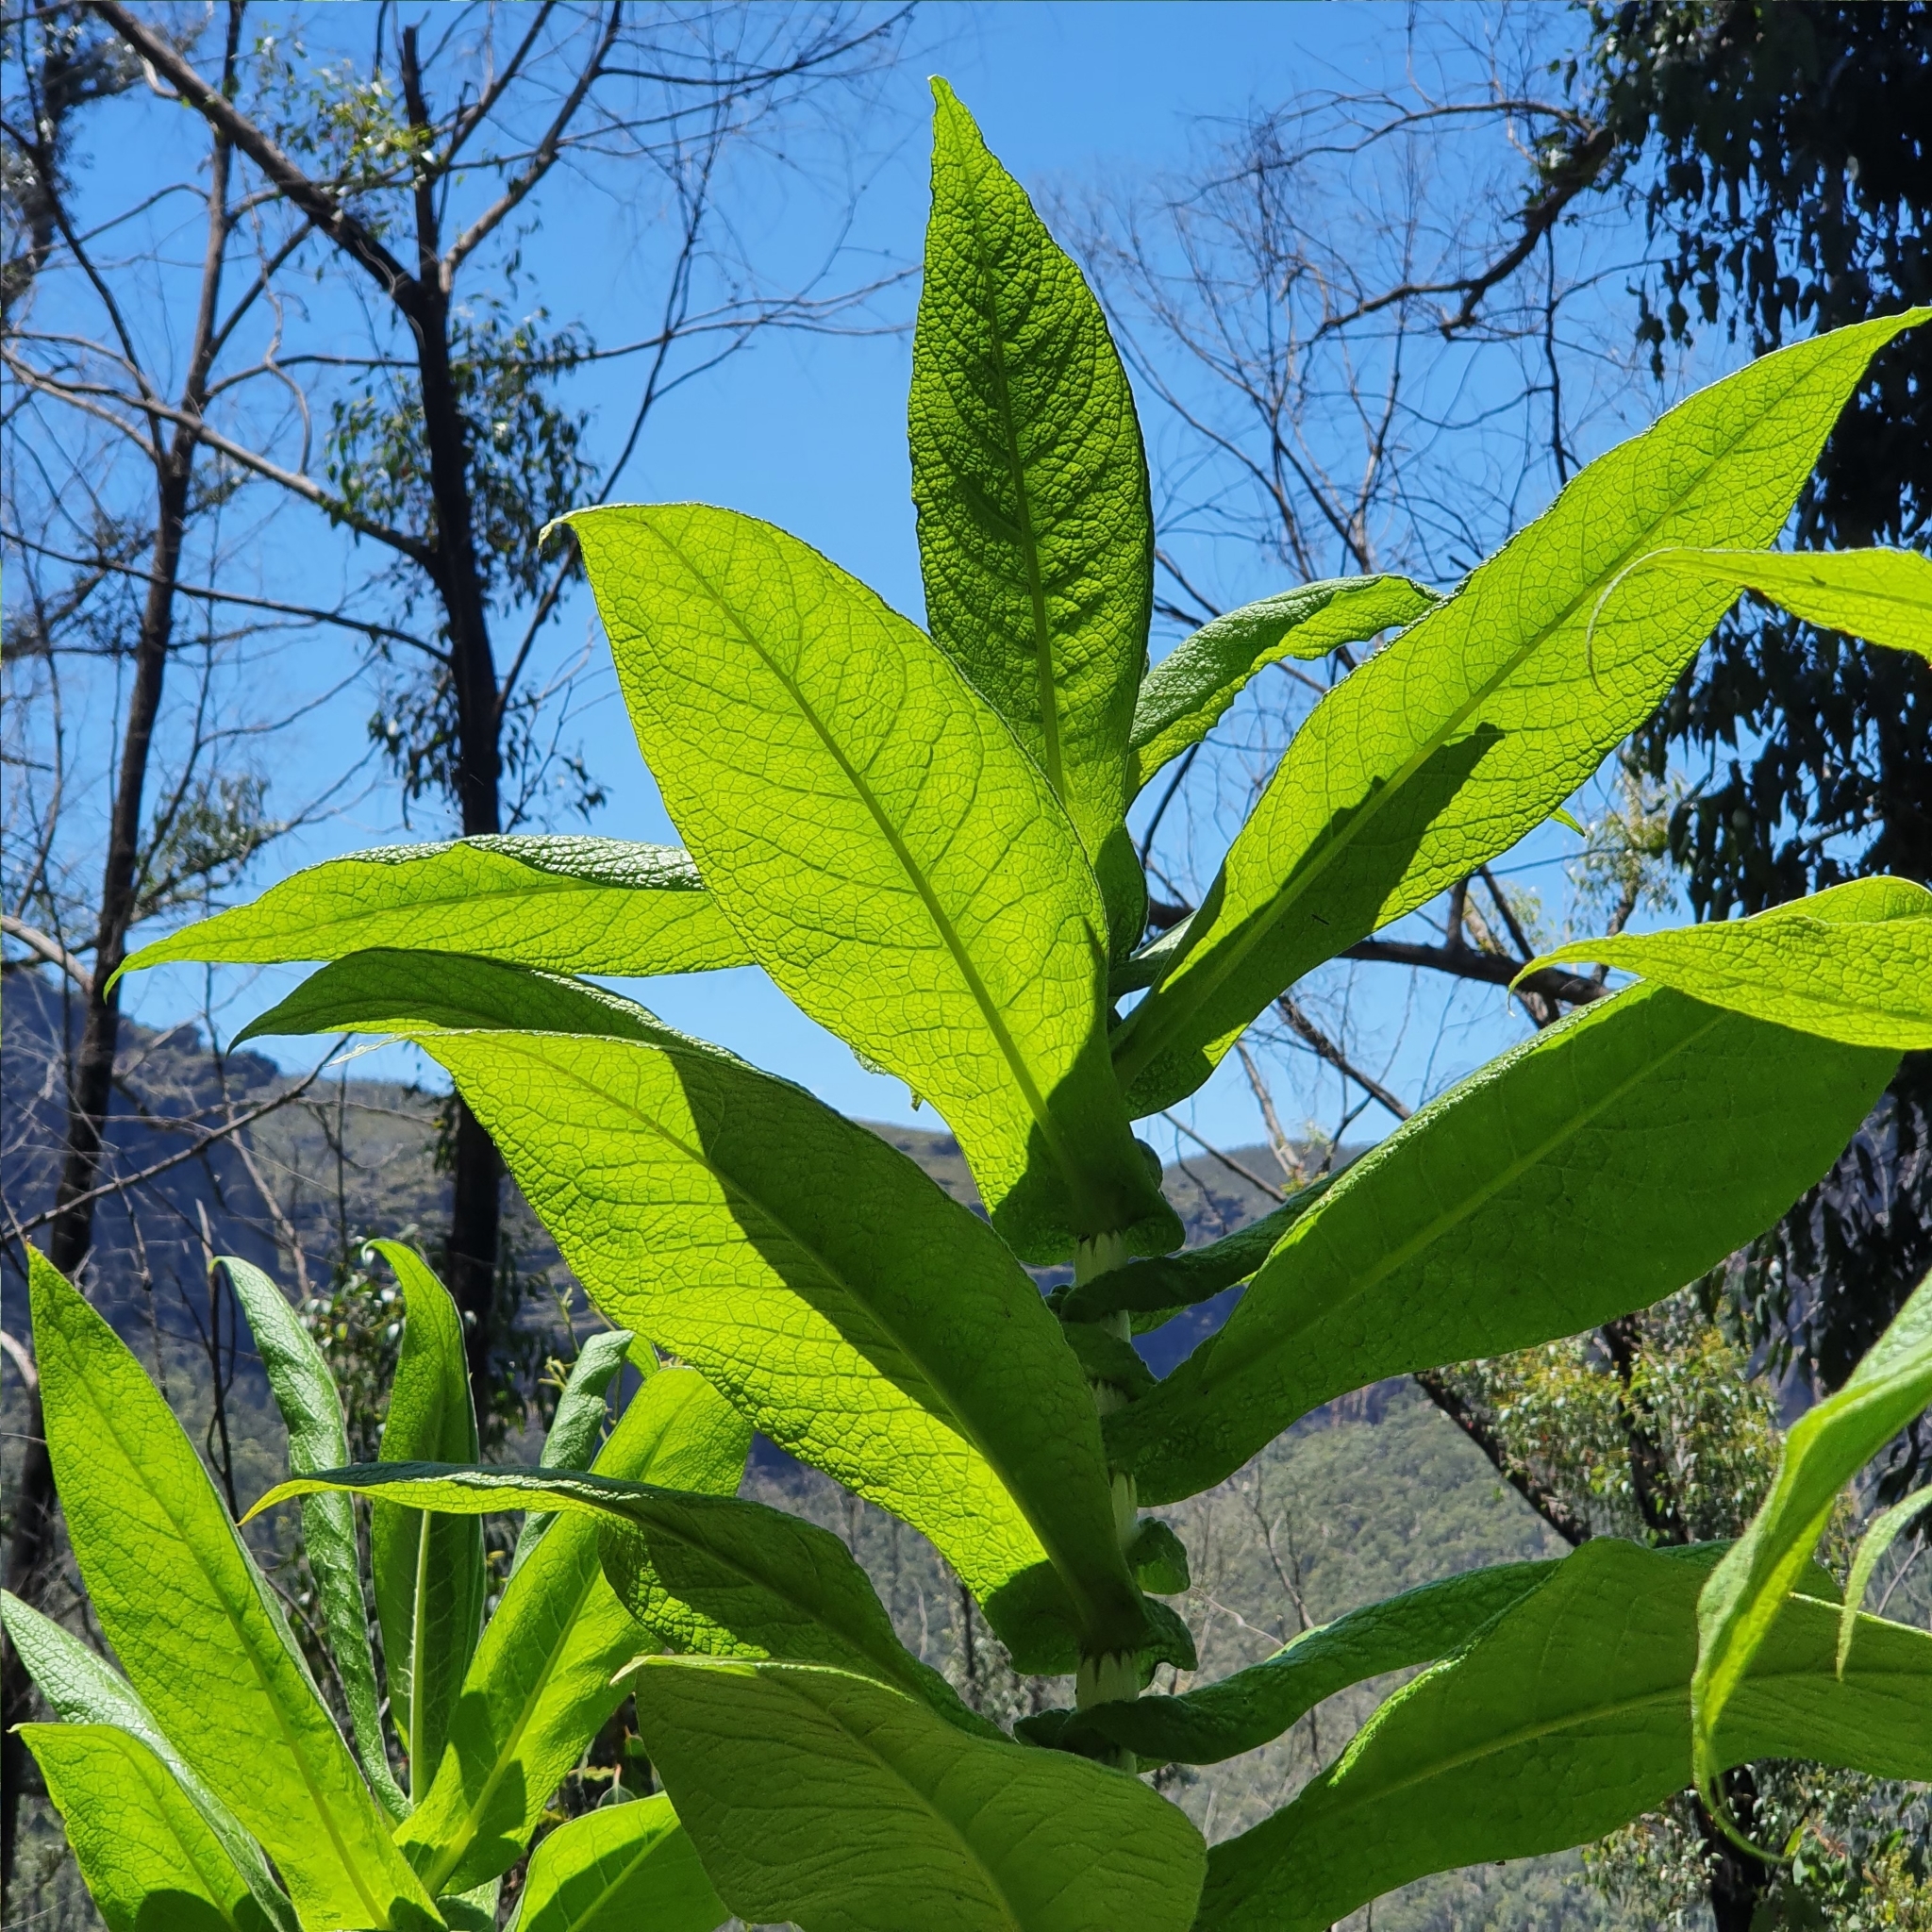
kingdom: Plantae
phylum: Tracheophyta
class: Magnoliopsida
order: Asterales
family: Asteraceae
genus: Calomeria
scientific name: Calomeria amaranthoides
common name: Incenseplant
